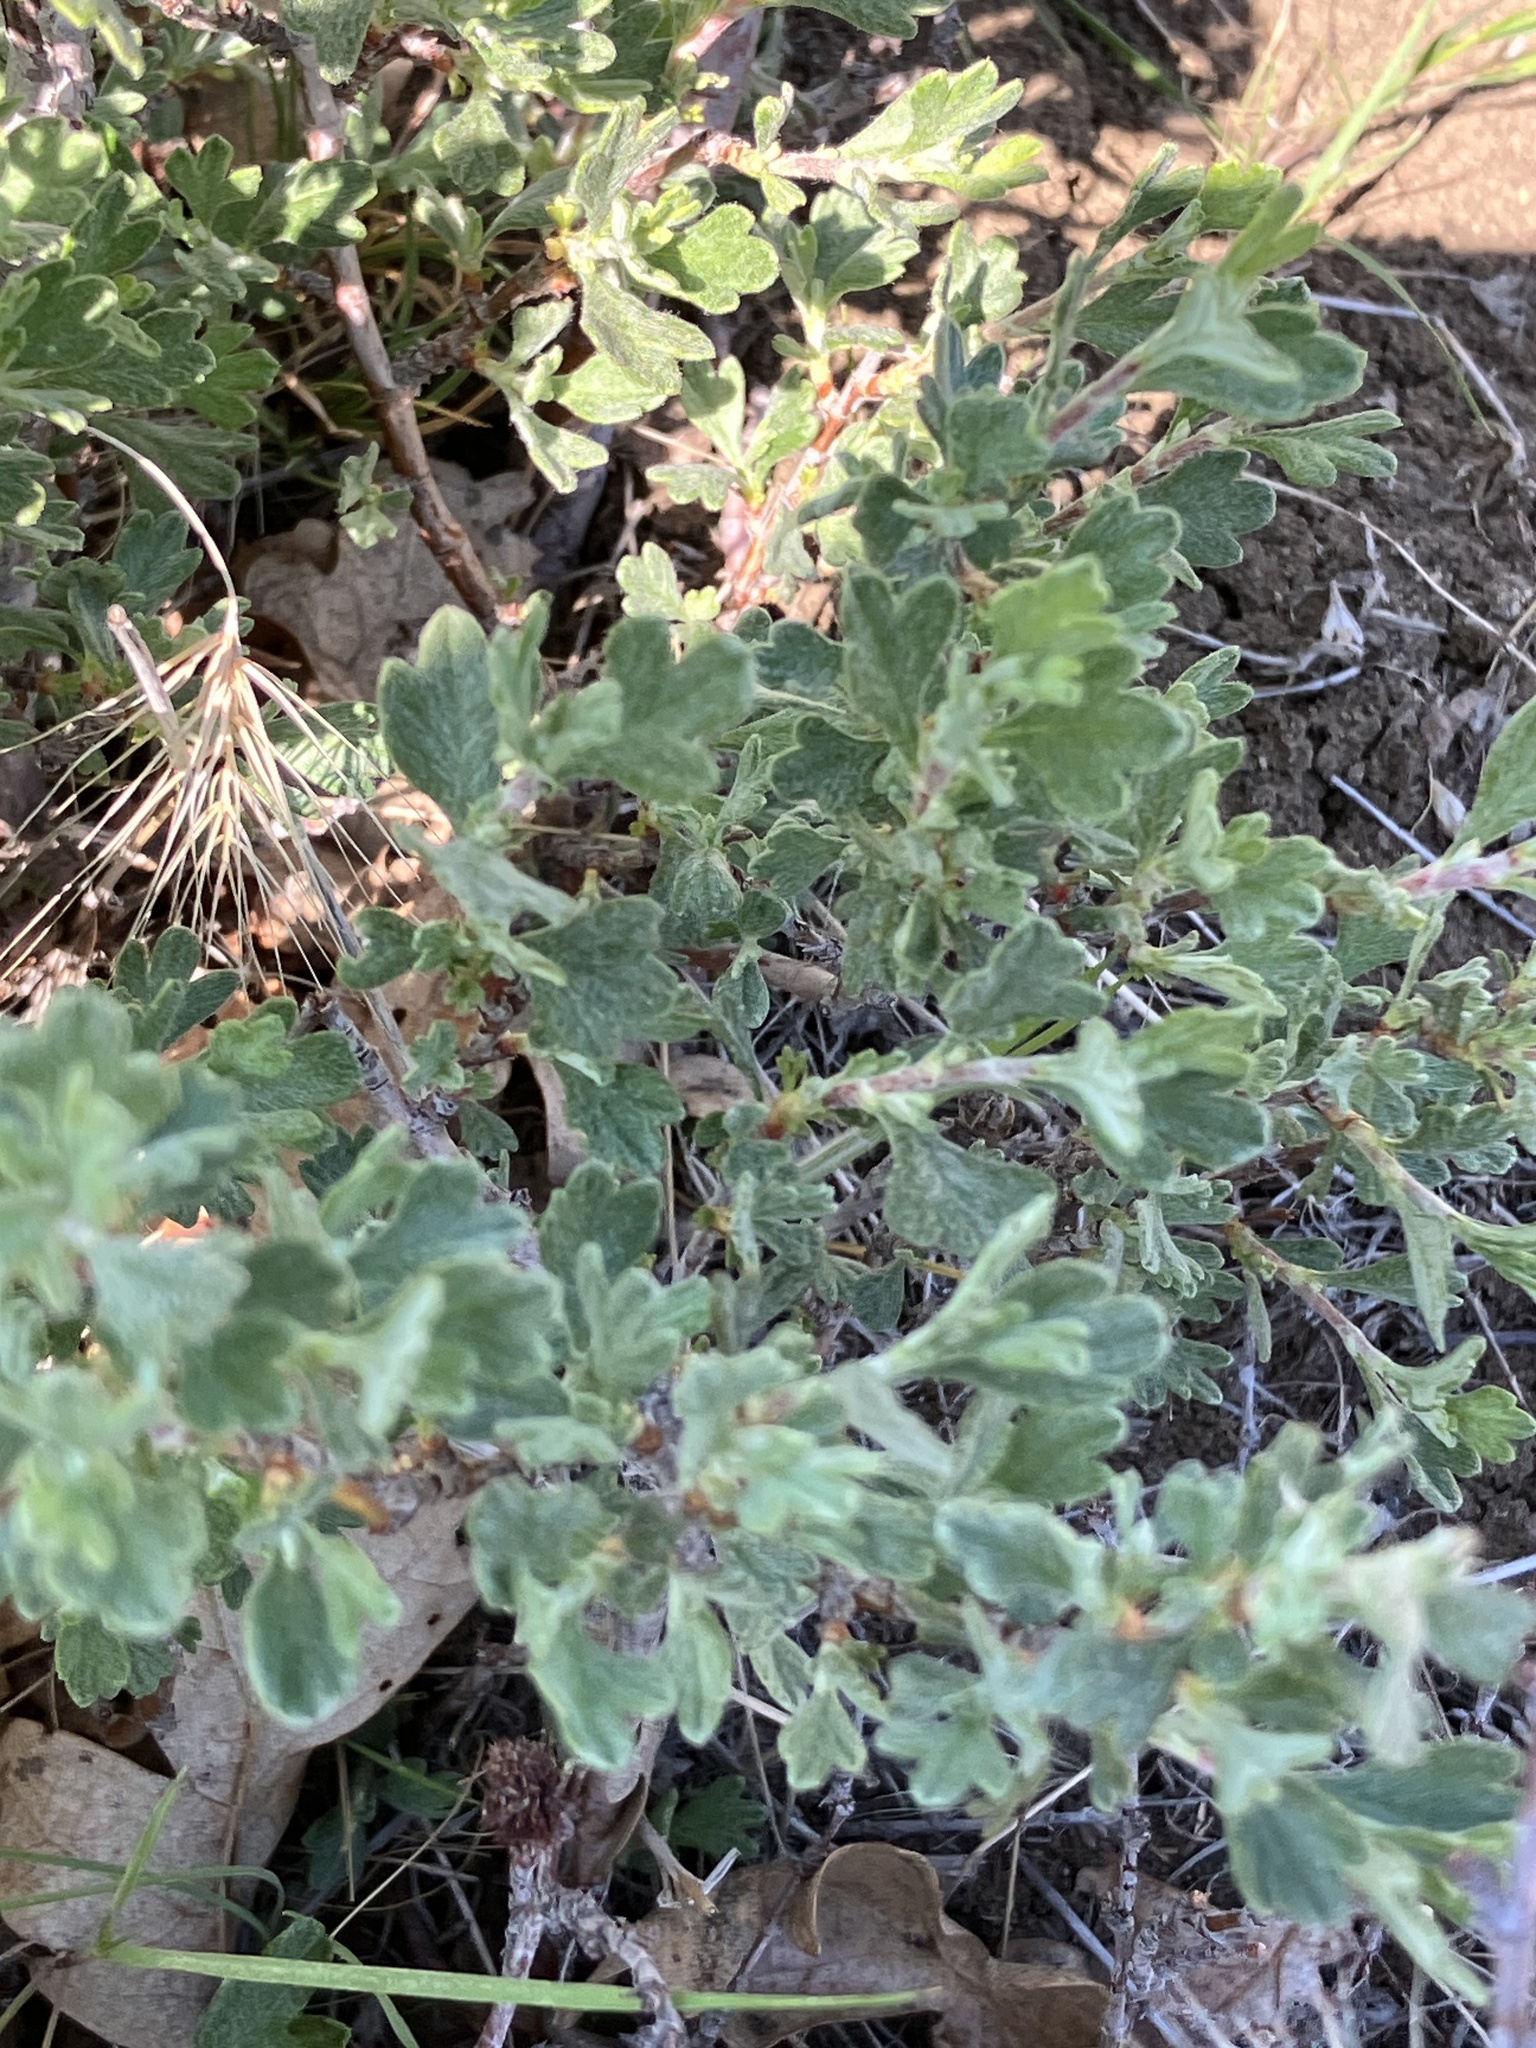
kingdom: Plantae
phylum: Tracheophyta
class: Magnoliopsida
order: Rosales
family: Rosaceae
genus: Purshia
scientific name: Purshia tridentata
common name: Antelope bitterbrush
